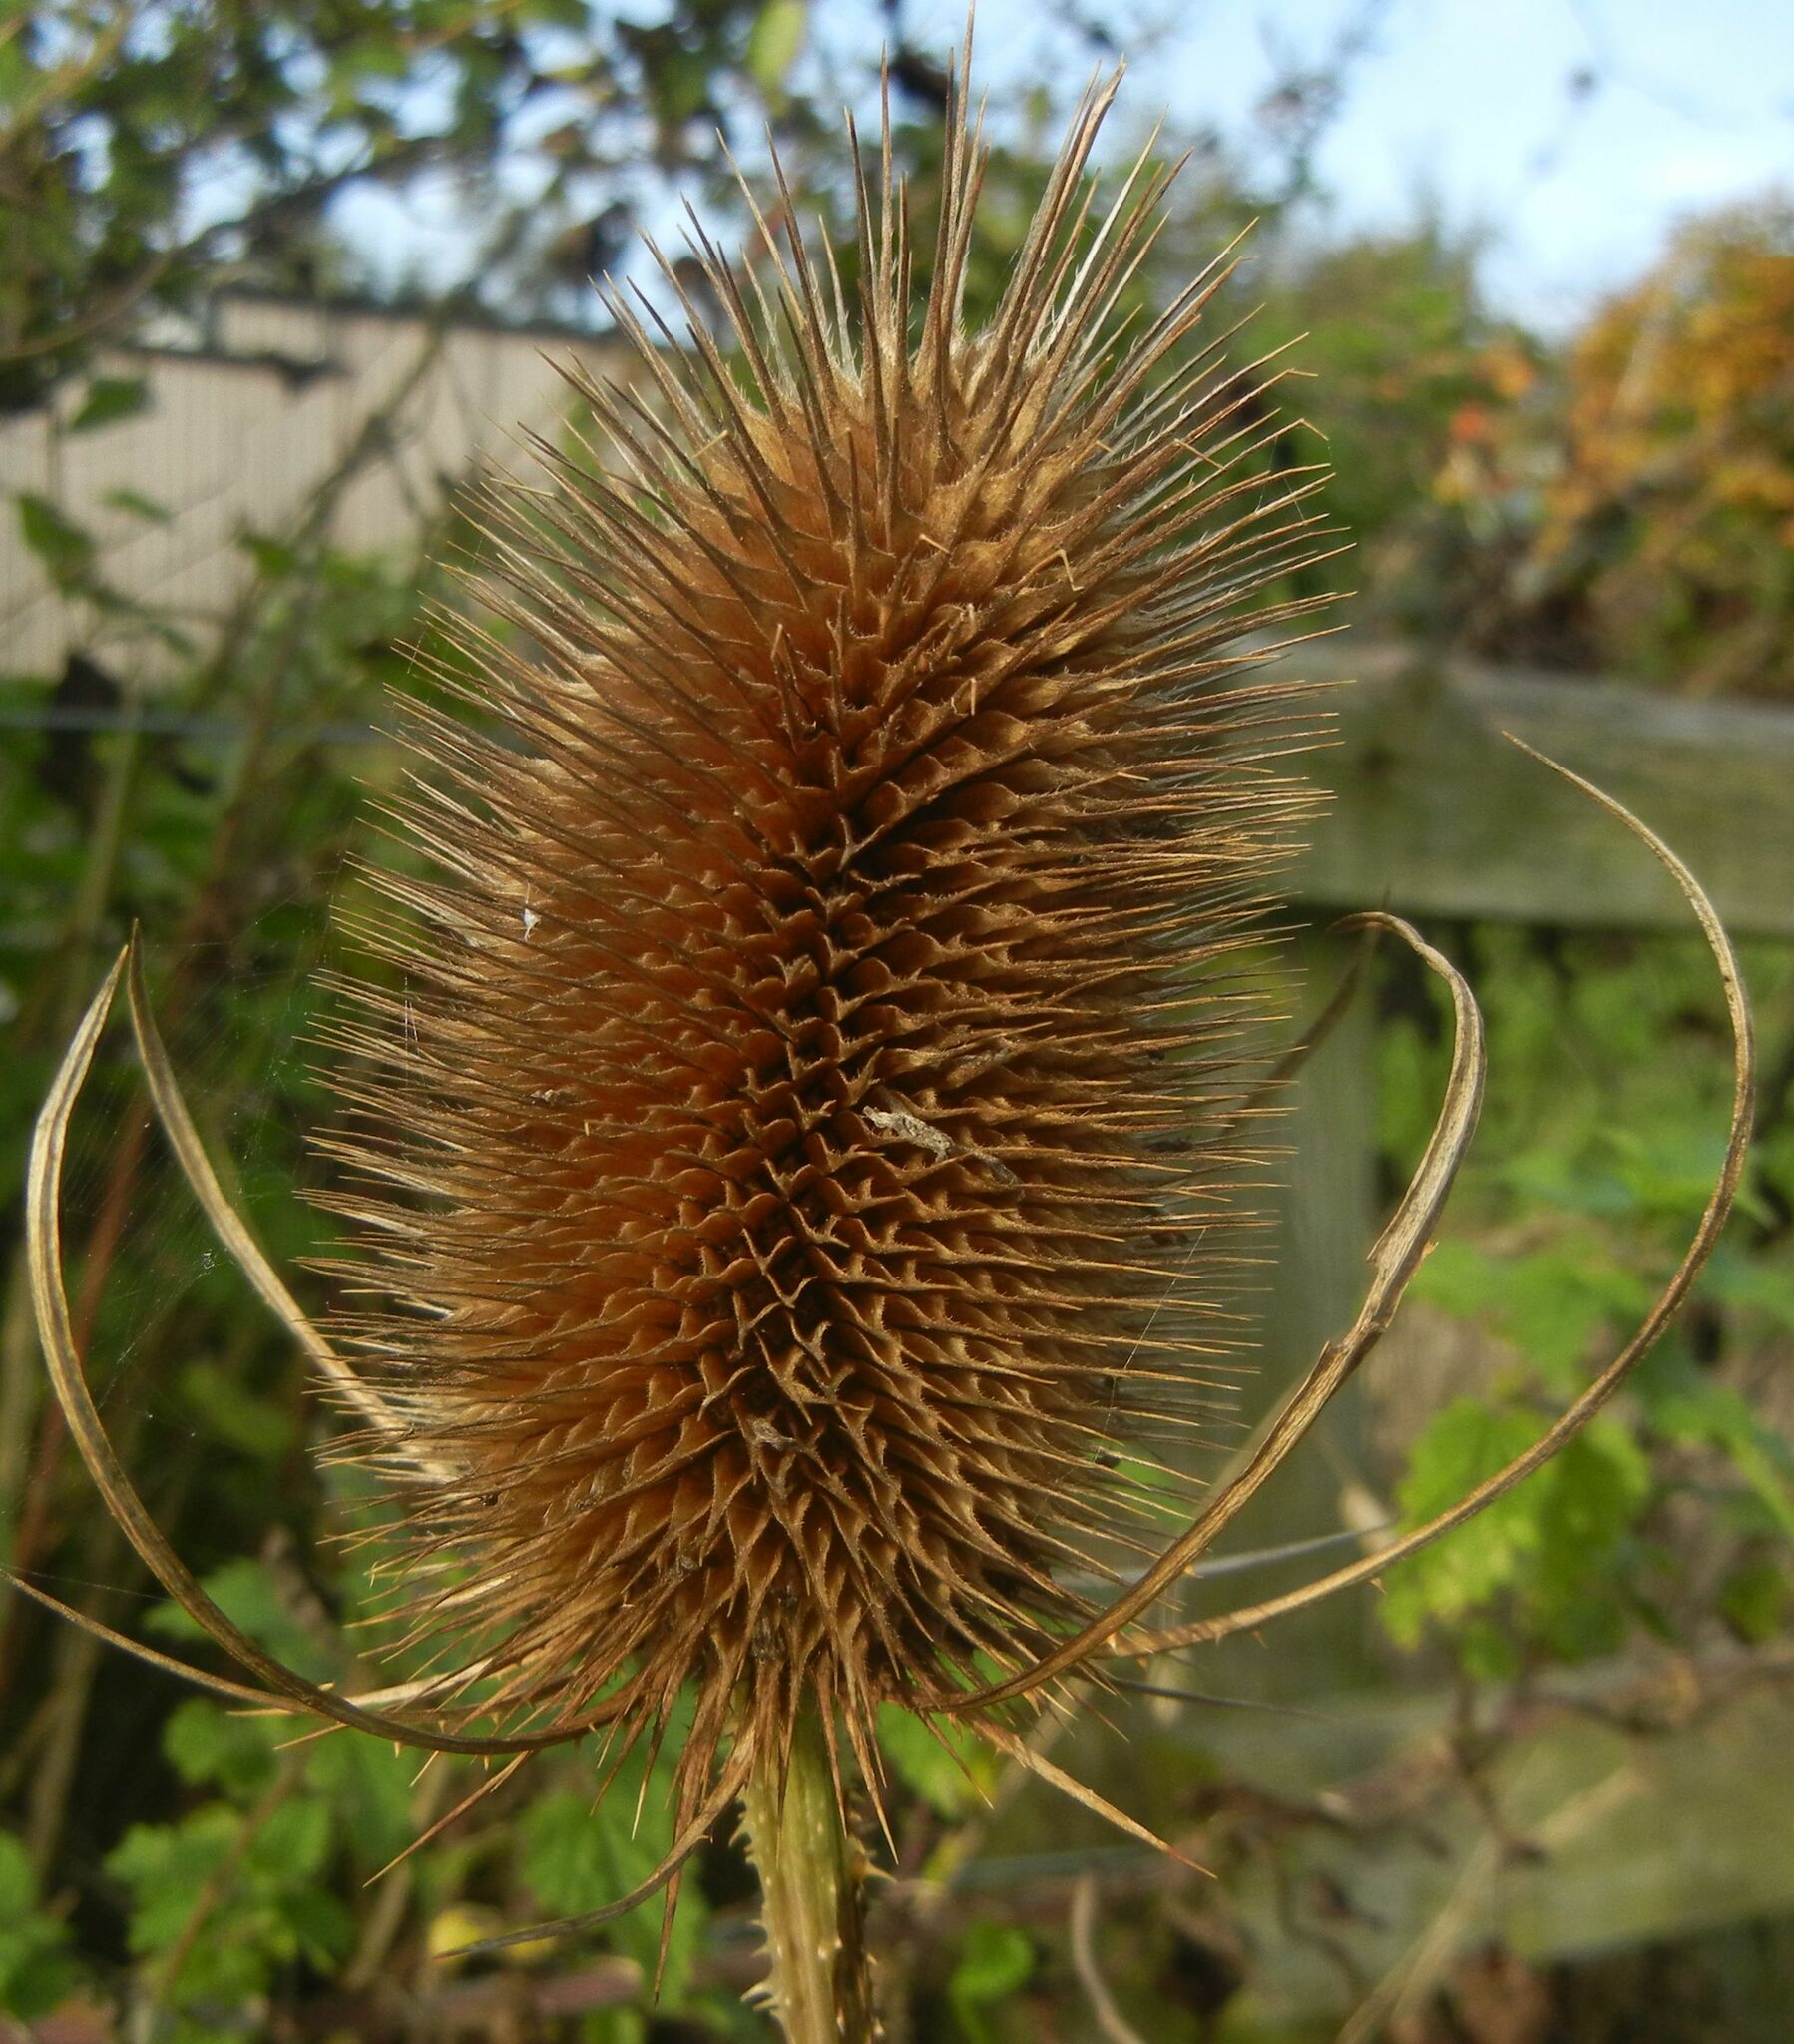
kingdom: Plantae
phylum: Tracheophyta
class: Magnoliopsida
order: Dipsacales
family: Caprifoliaceae
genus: Dipsacus
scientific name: Dipsacus fullonum
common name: Teasel
